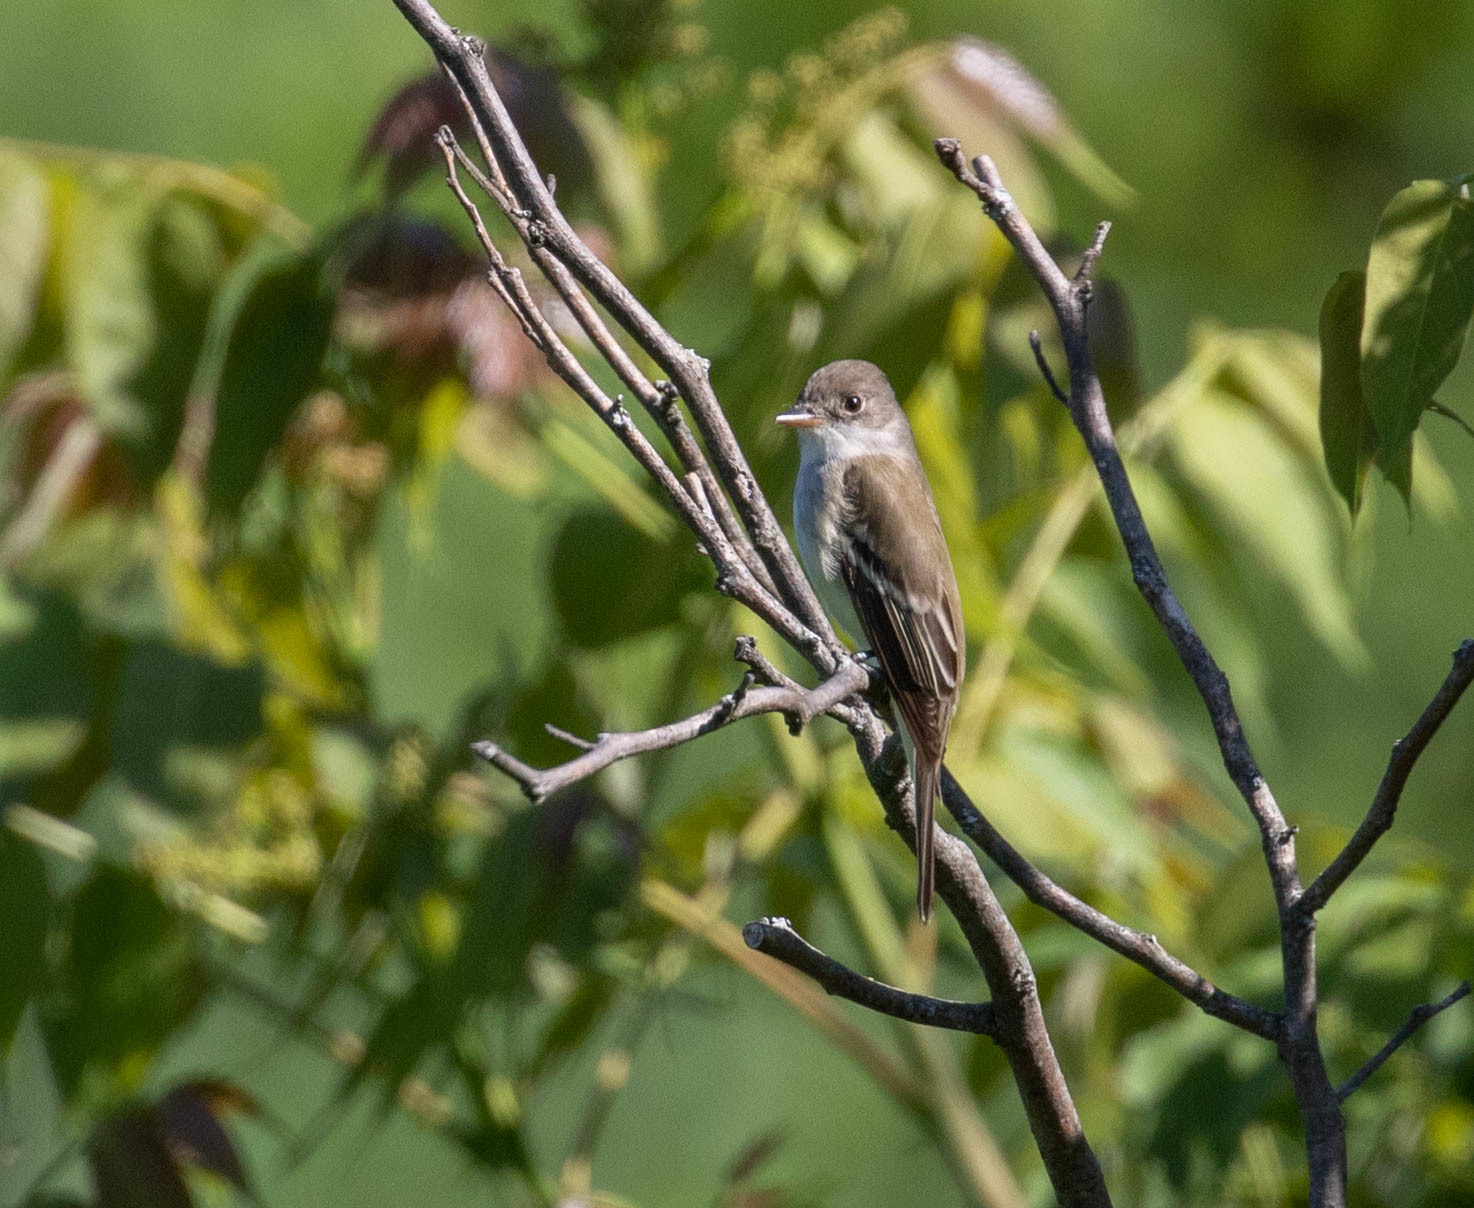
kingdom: Animalia
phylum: Chordata
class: Aves
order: Passeriformes
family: Tyrannidae
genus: Empidonax
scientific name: Empidonax traillii
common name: Willow flycatcher
